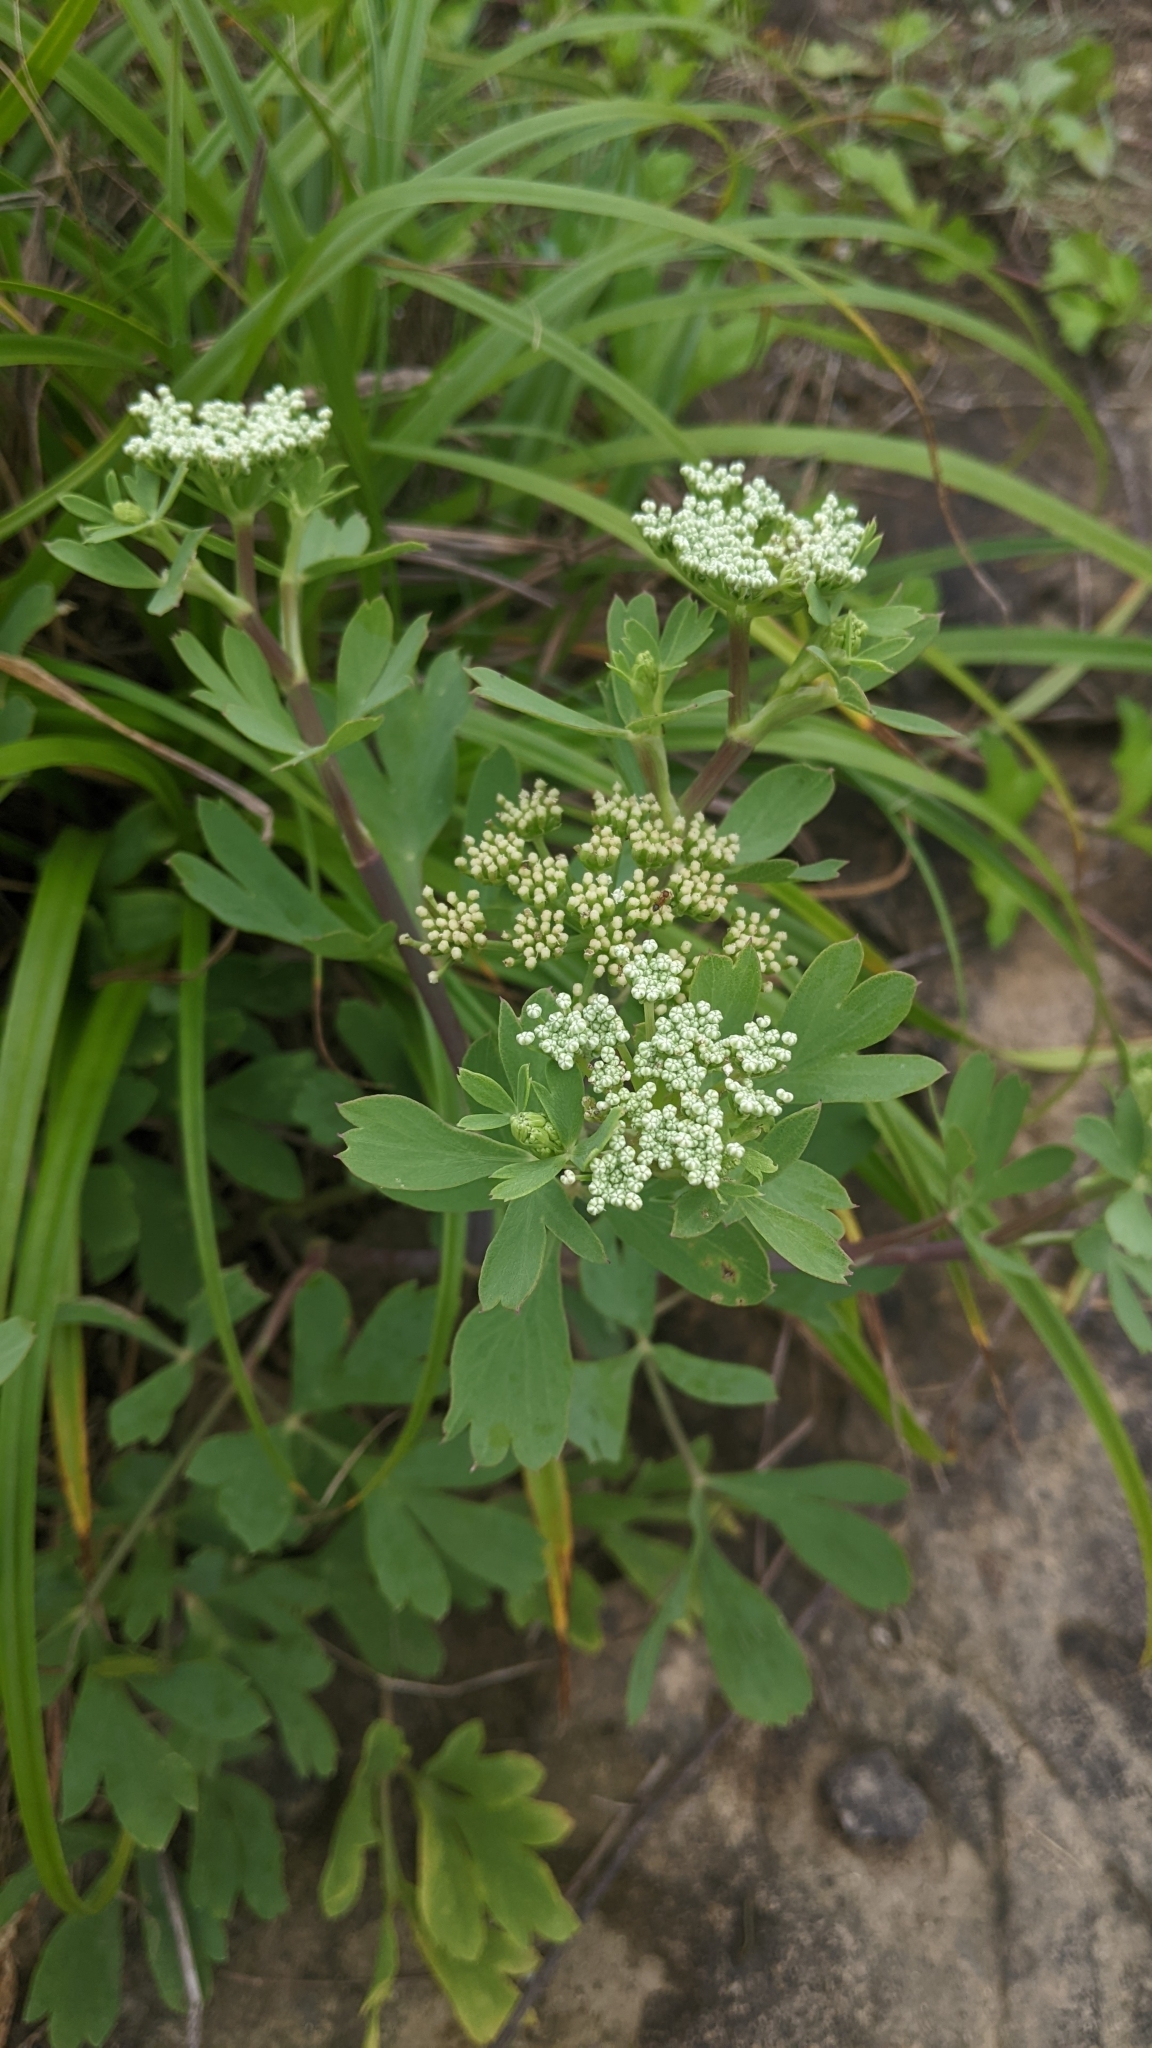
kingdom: Plantae
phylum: Tracheophyta
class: Magnoliopsida
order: Apiales
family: Apiaceae
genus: Peucedanum
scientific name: Peucedanum japonicum
